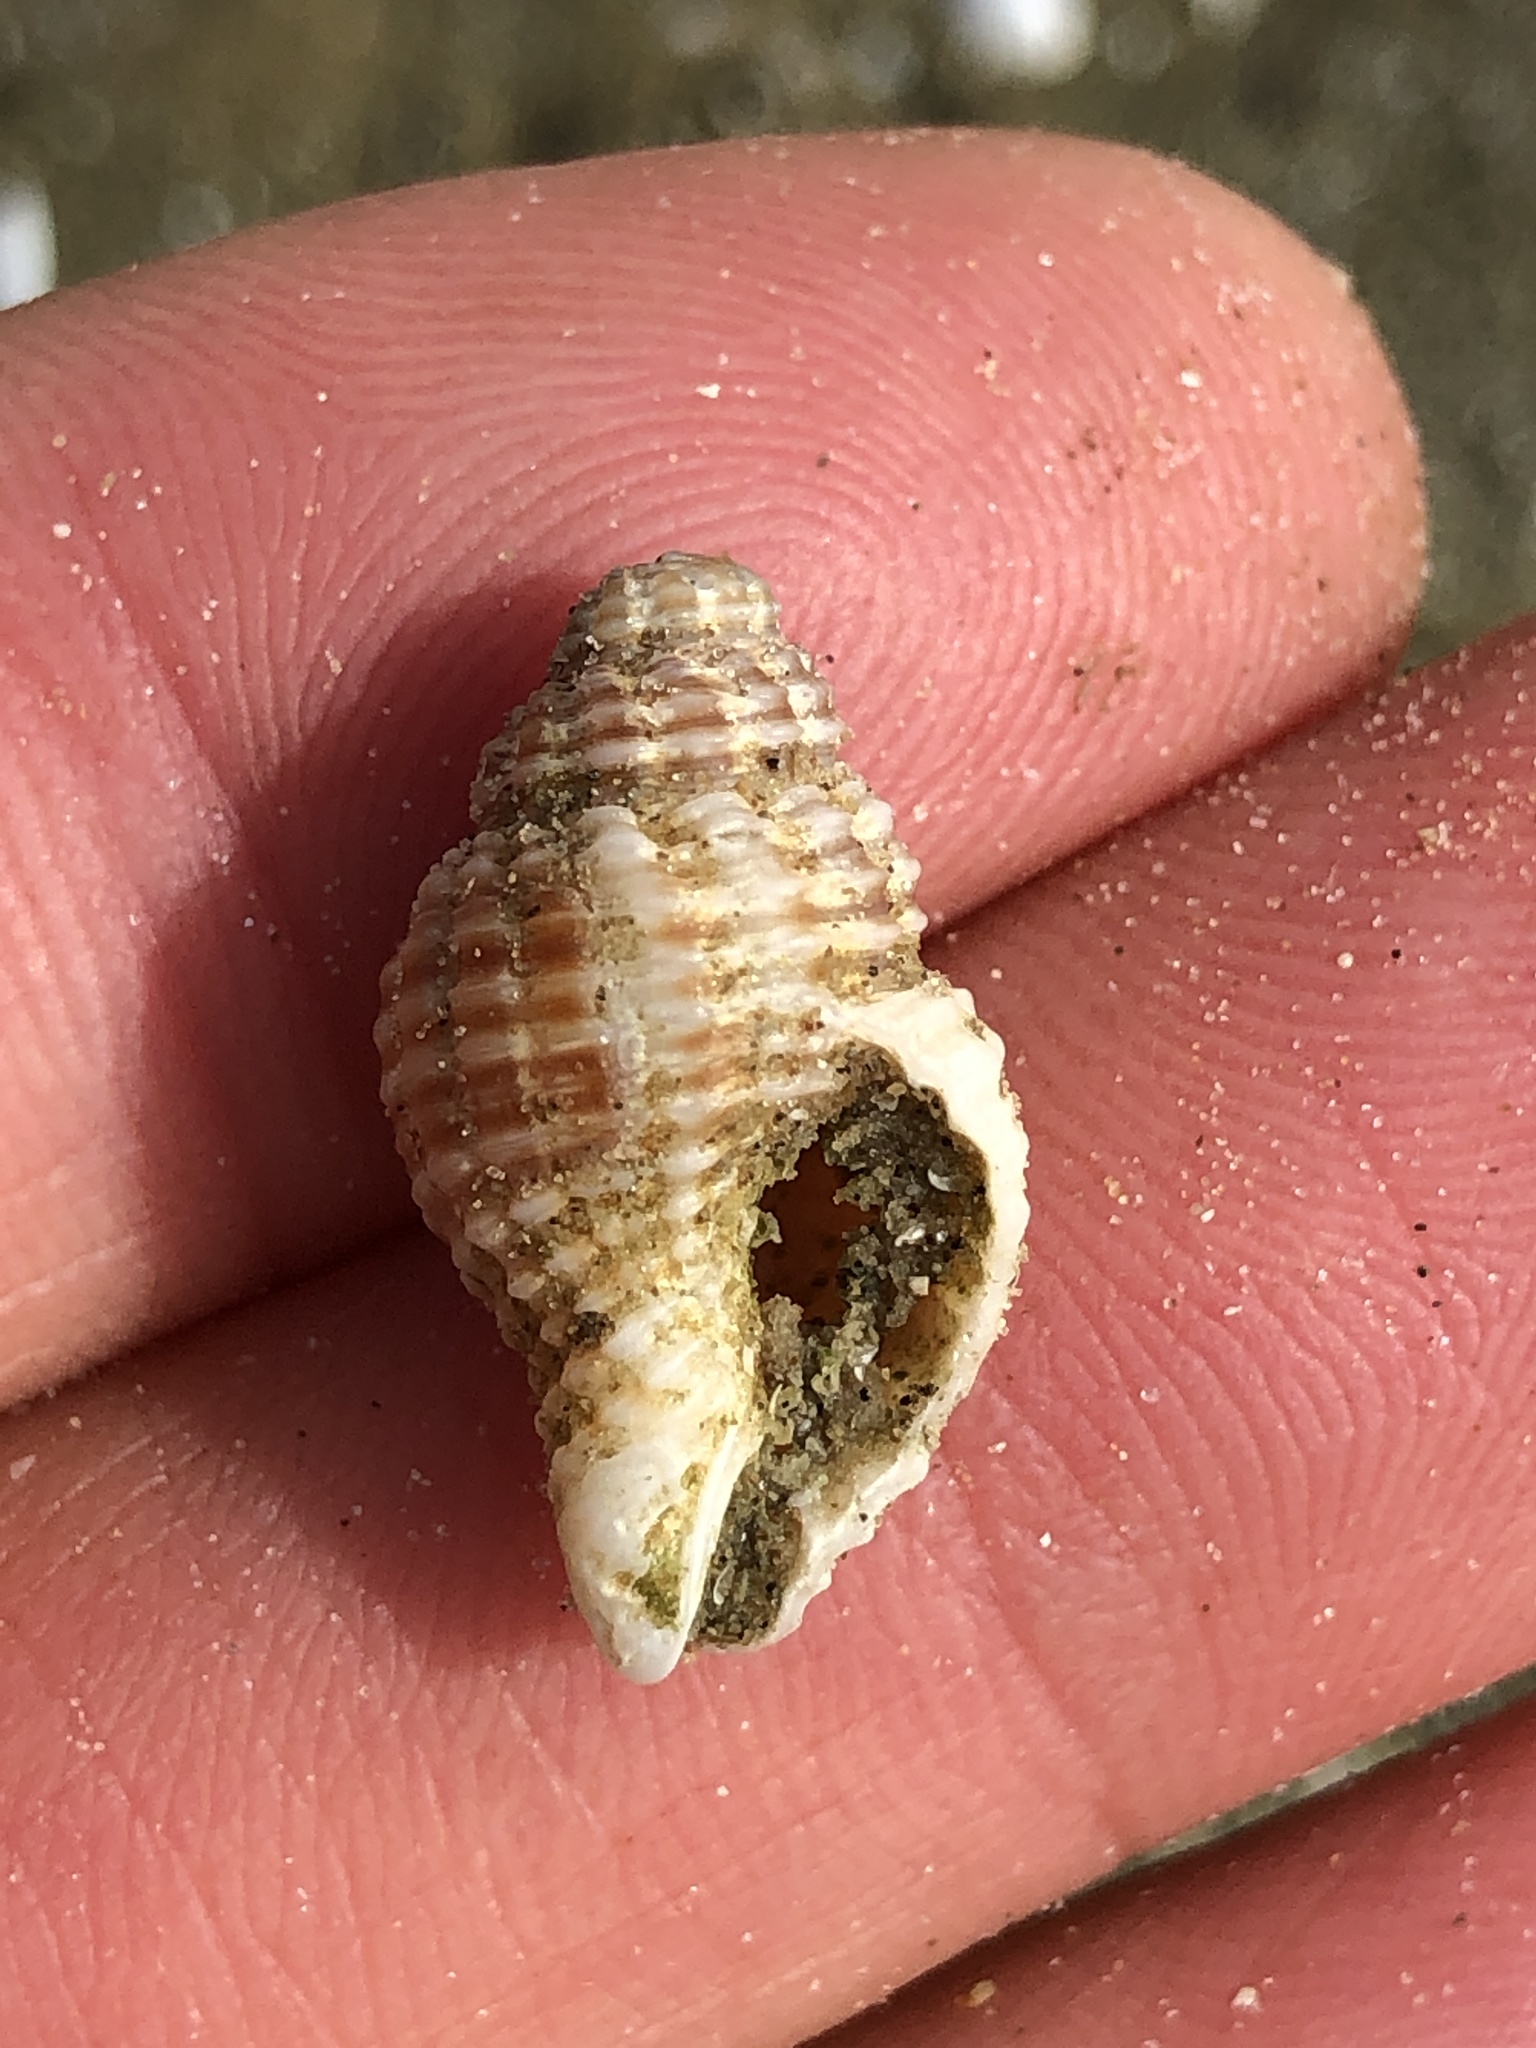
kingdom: Animalia
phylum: Mollusca
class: Gastropoda
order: Neogastropoda
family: Pisaniidae
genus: Solenosteira
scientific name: Solenosteira cancellaria
